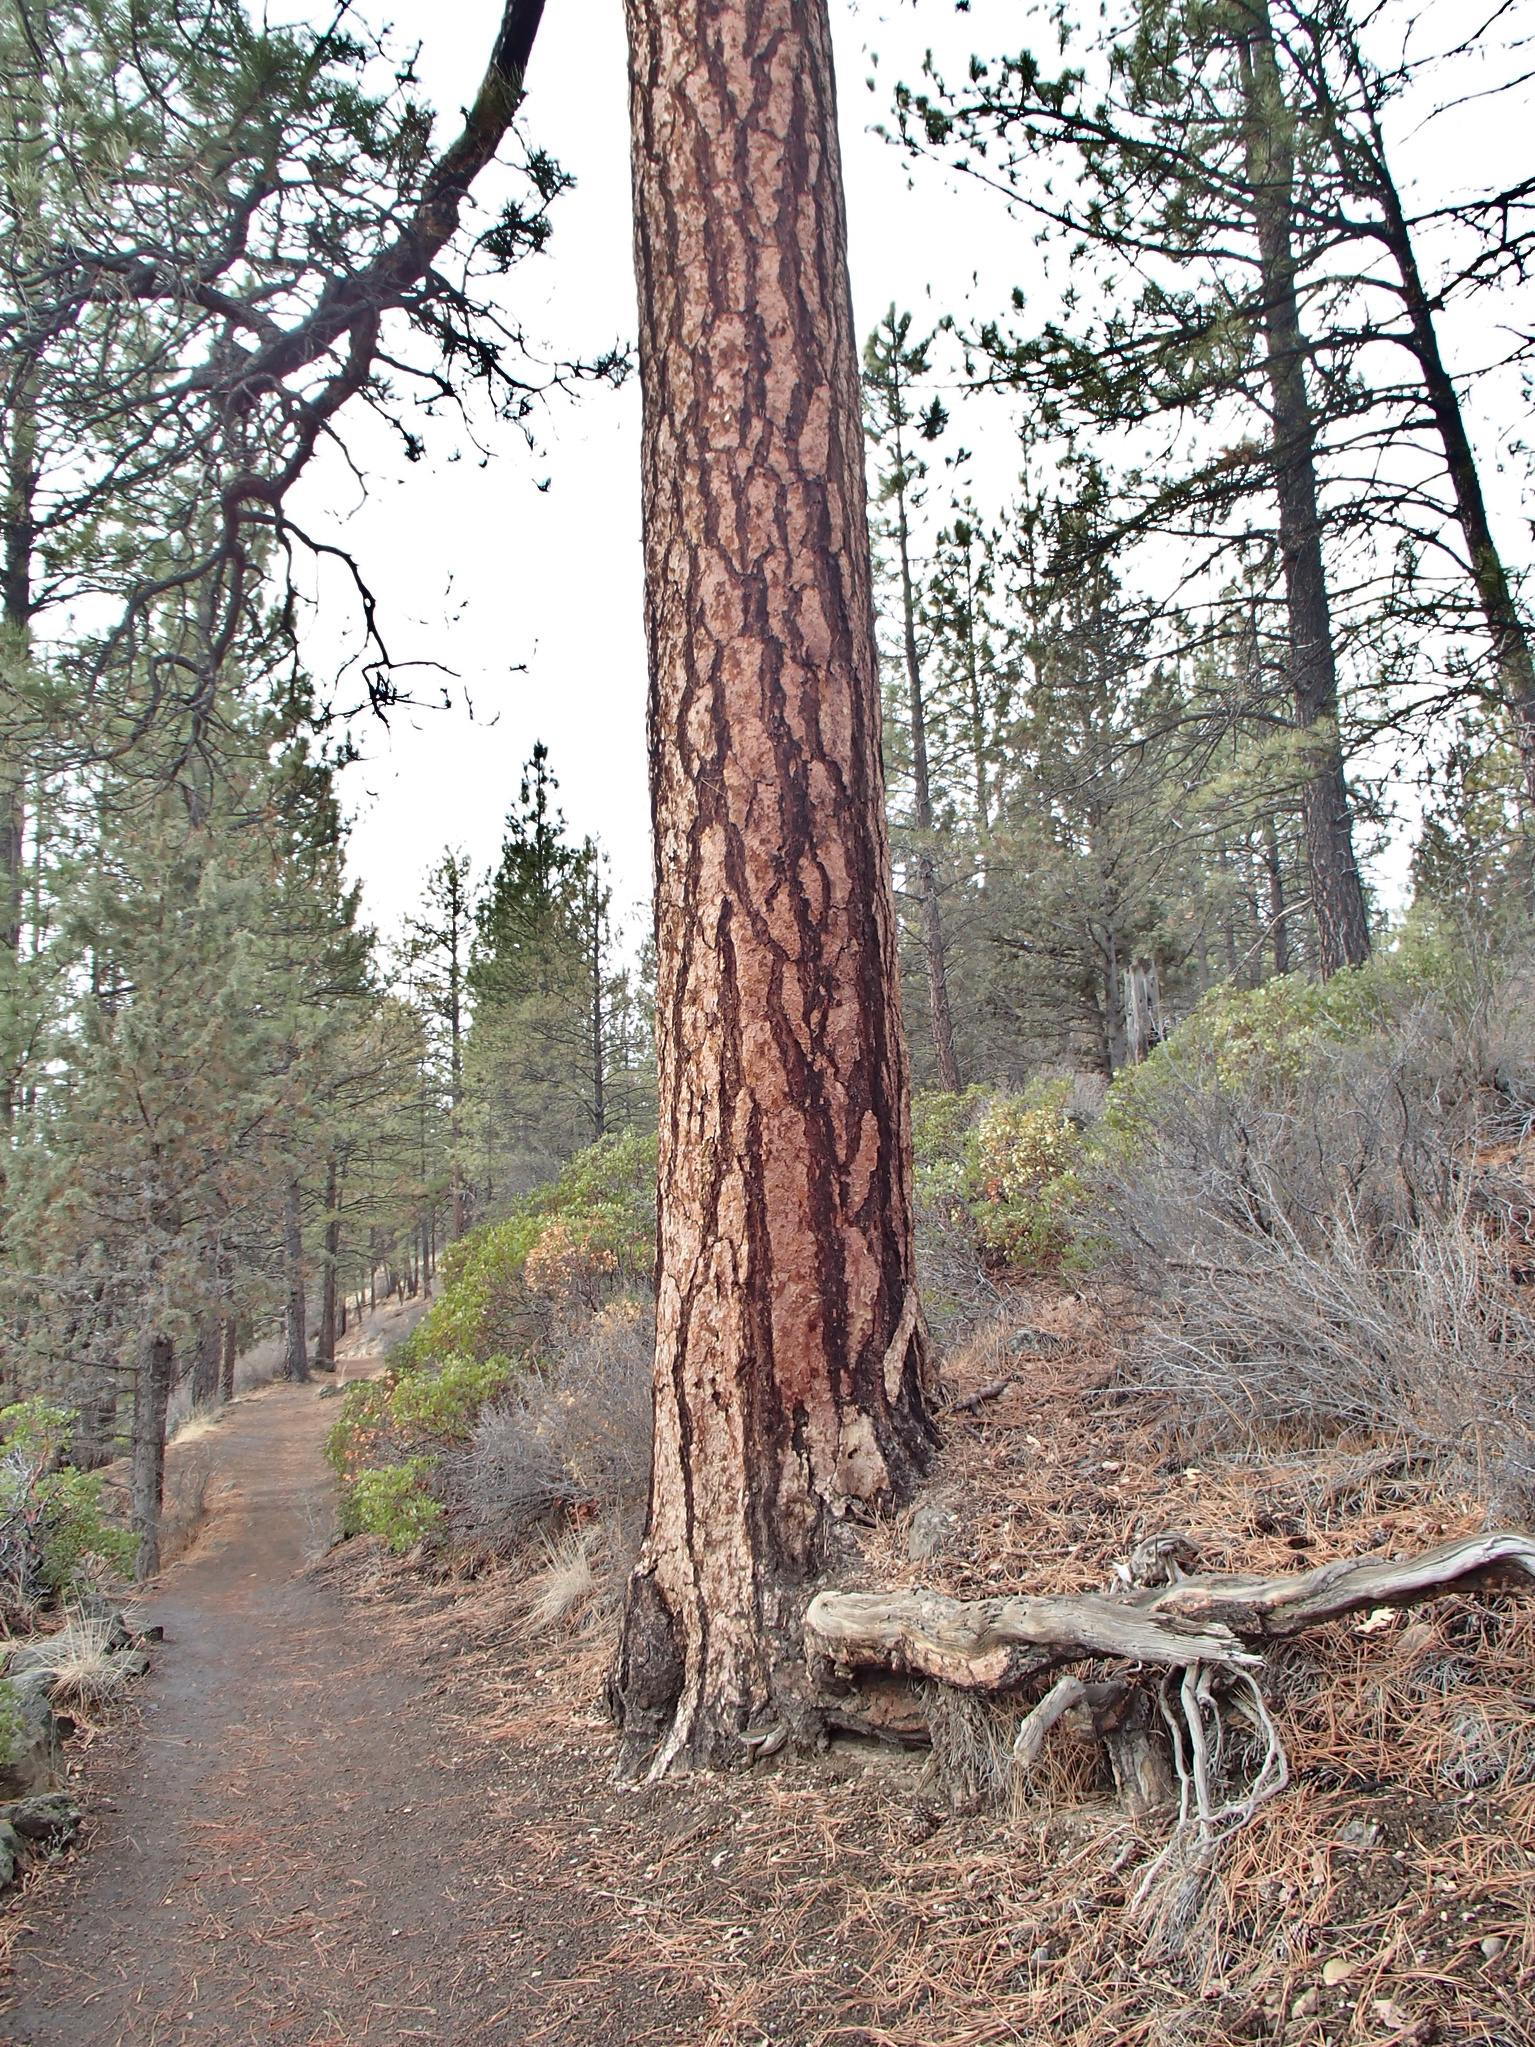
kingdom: Plantae
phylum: Tracheophyta
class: Pinopsida
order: Pinales
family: Pinaceae
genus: Pinus
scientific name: Pinus ponderosa
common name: Western yellow-pine
